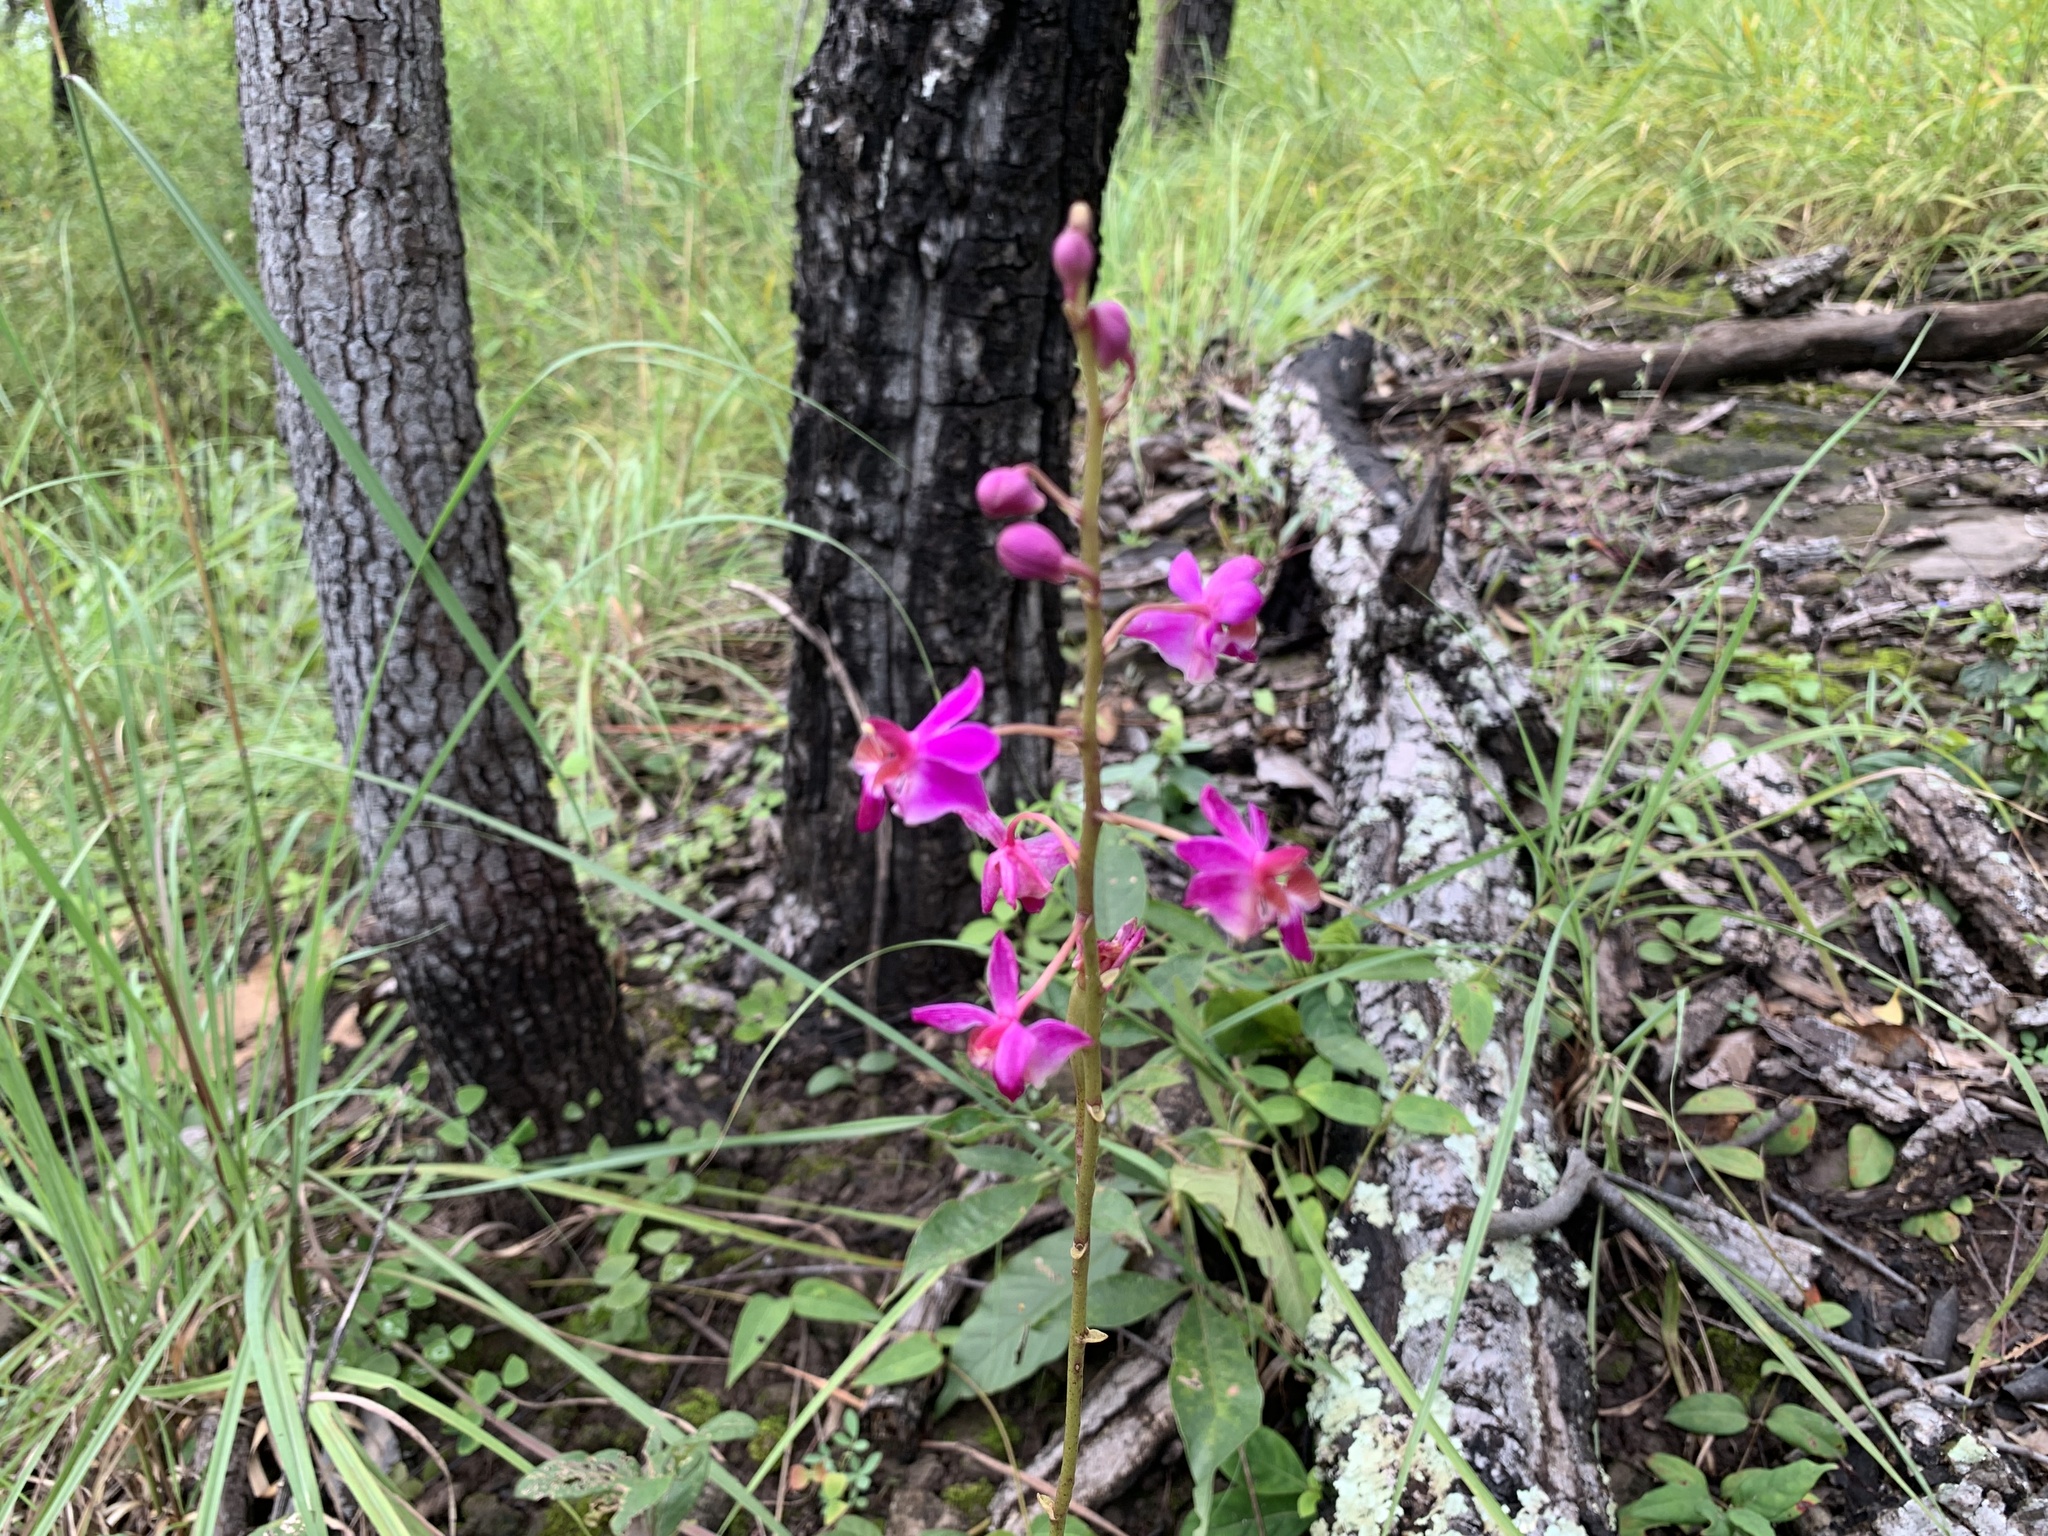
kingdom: Plantae
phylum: Tracheophyta
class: Liliopsida
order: Asparagales
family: Orchidaceae
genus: Phalaenopsis
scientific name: Phalaenopsis pulcherrima
